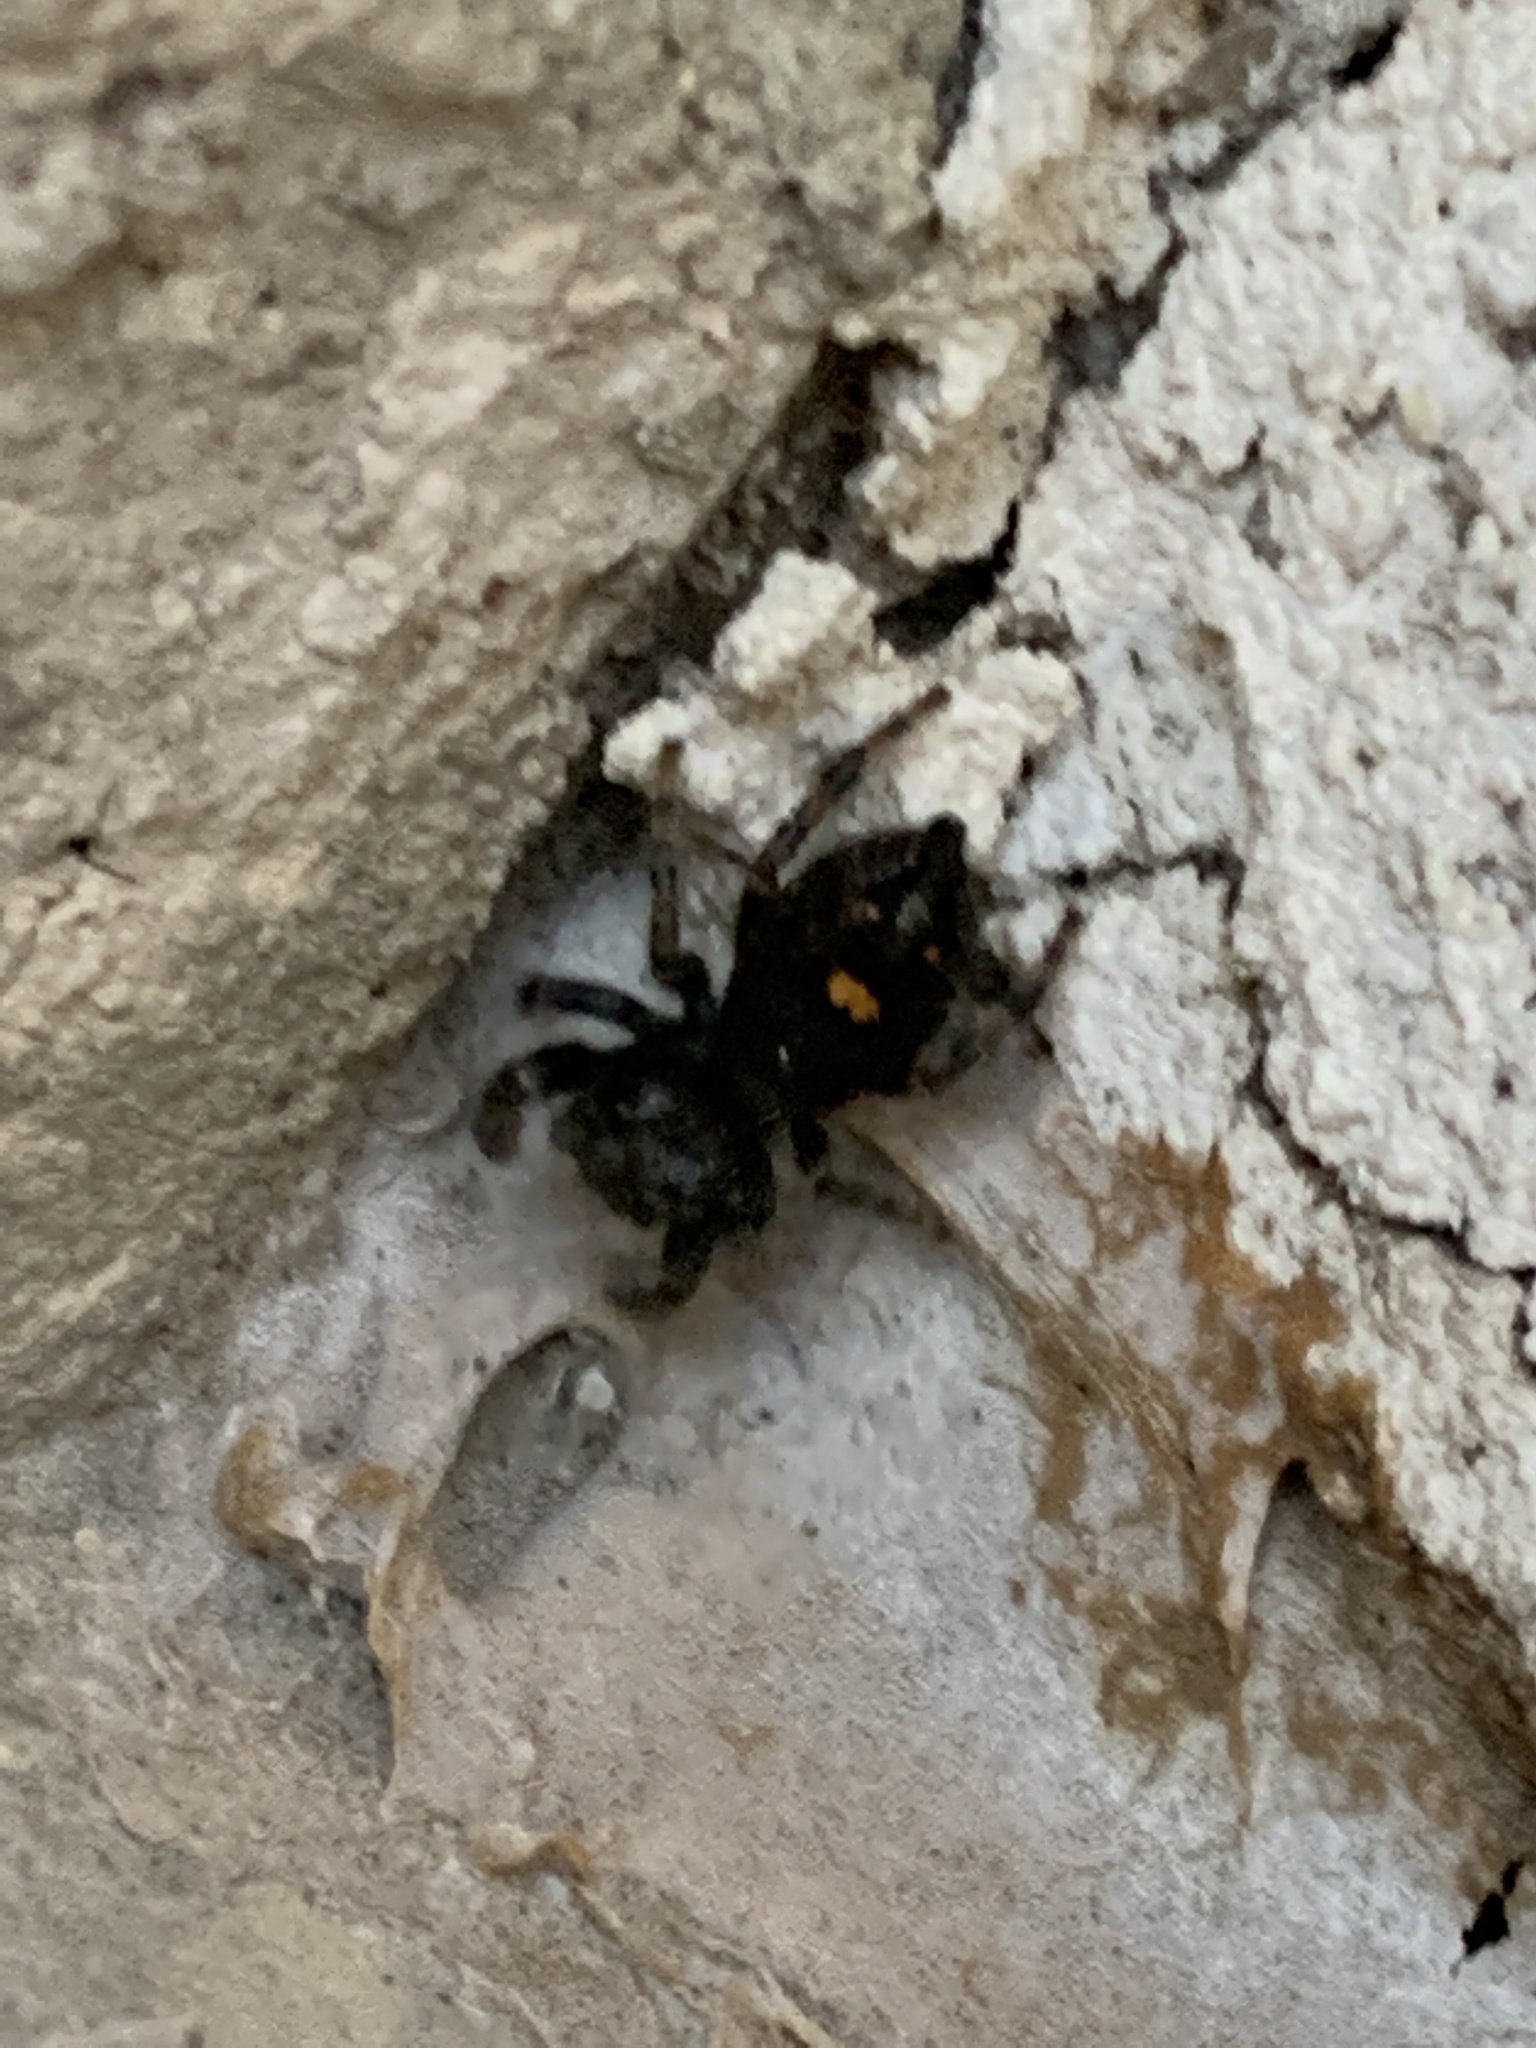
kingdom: Animalia
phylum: Arthropoda
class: Arachnida
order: Araneae
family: Salticidae
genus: Phidippus
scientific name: Phidippus audax
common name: Bold jumper
